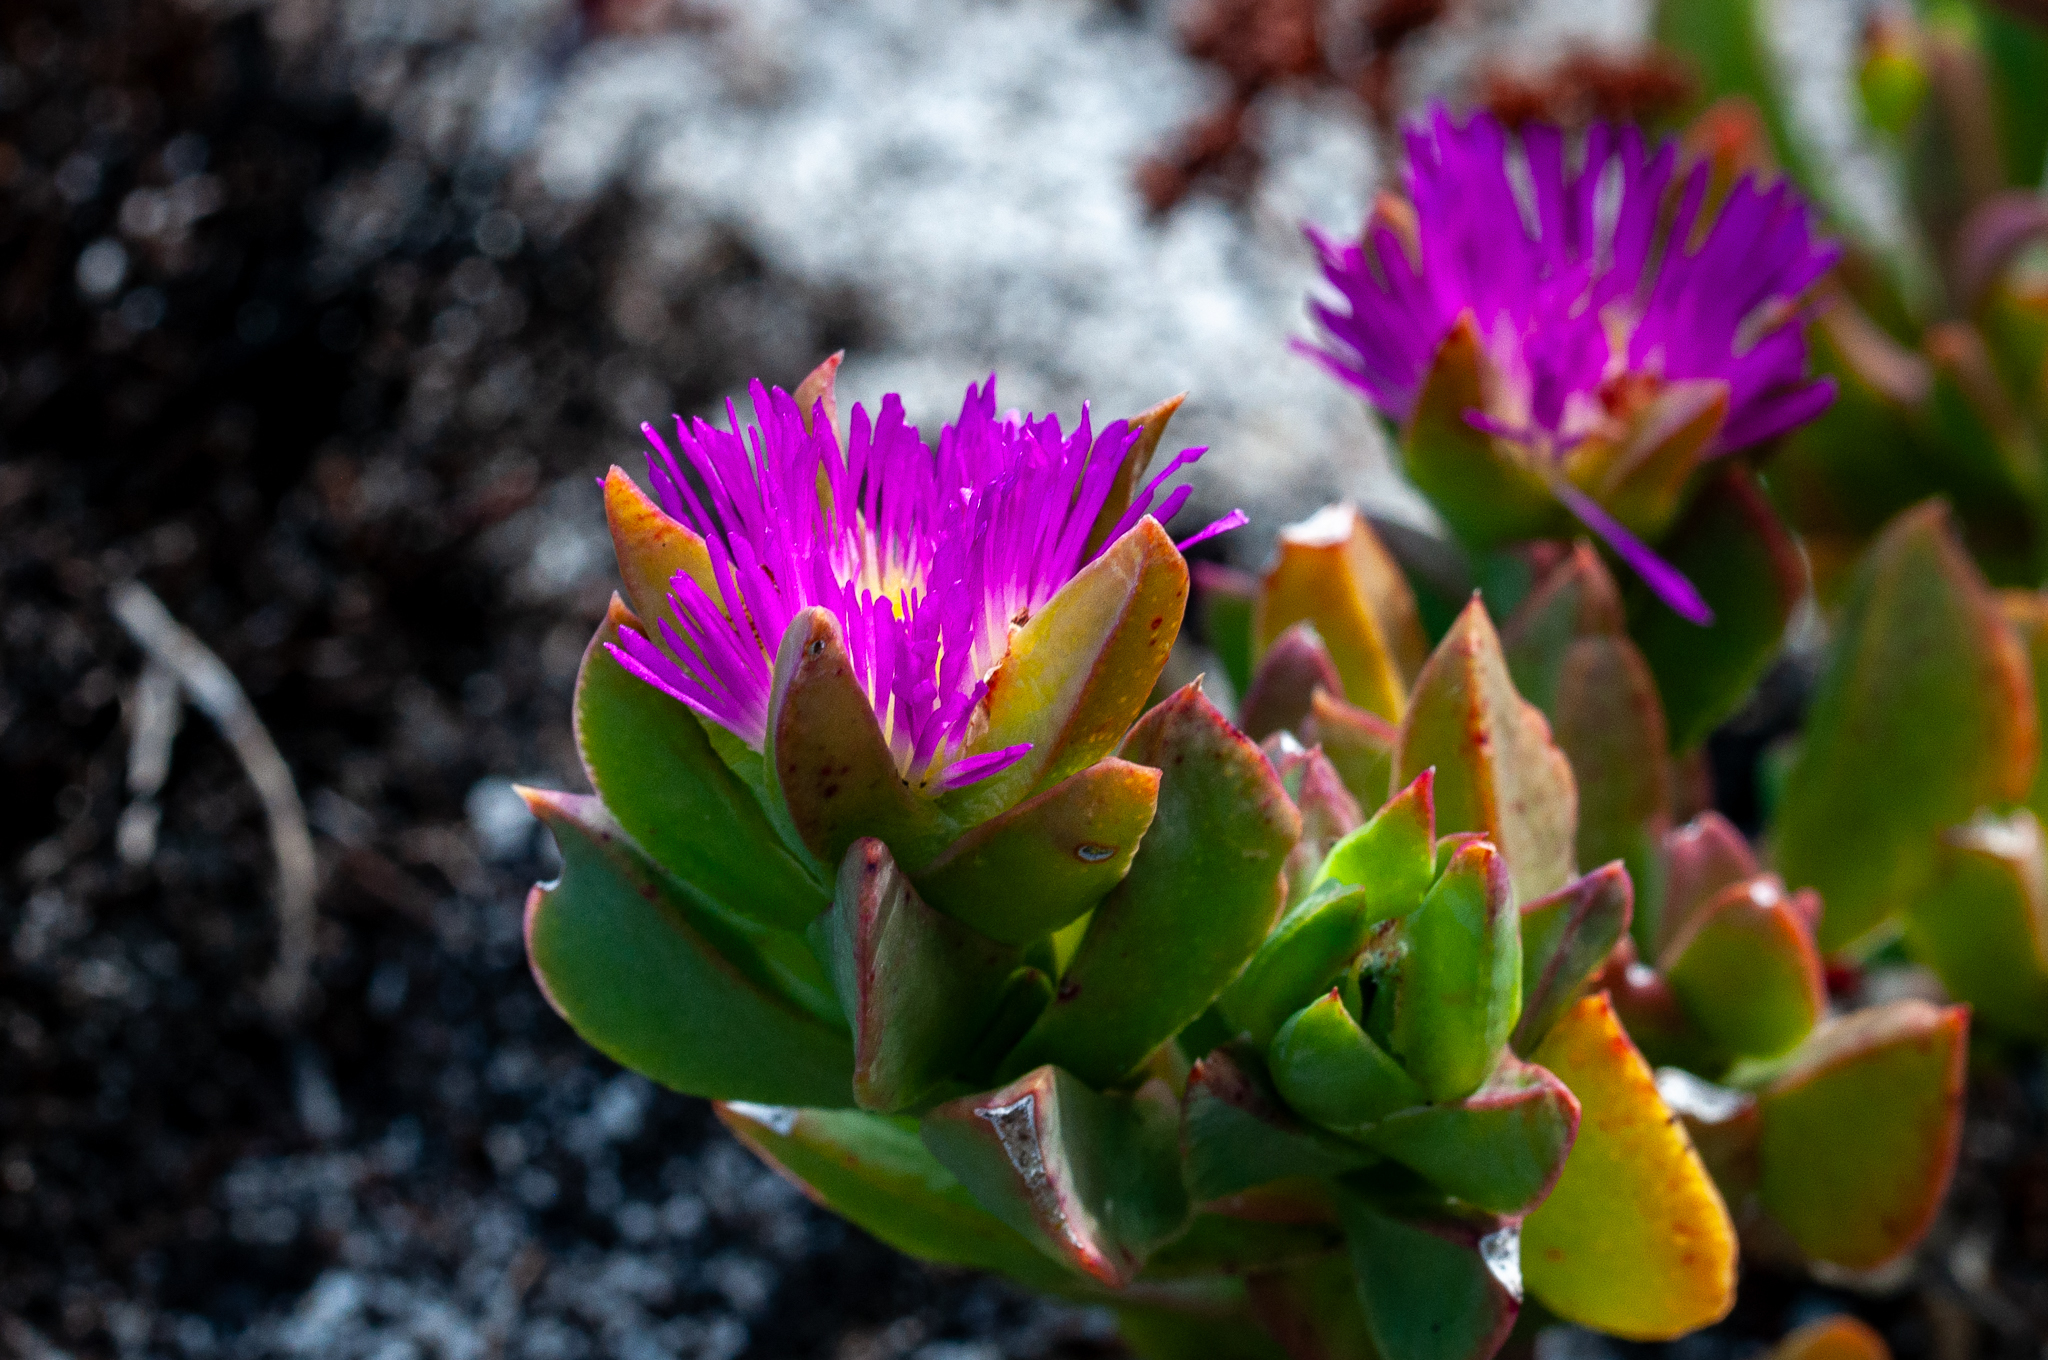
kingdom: Plantae
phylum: Tracheophyta
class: Magnoliopsida
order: Caryophyllales
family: Aizoaceae
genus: Erepsia
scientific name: Erepsia steytlerae
